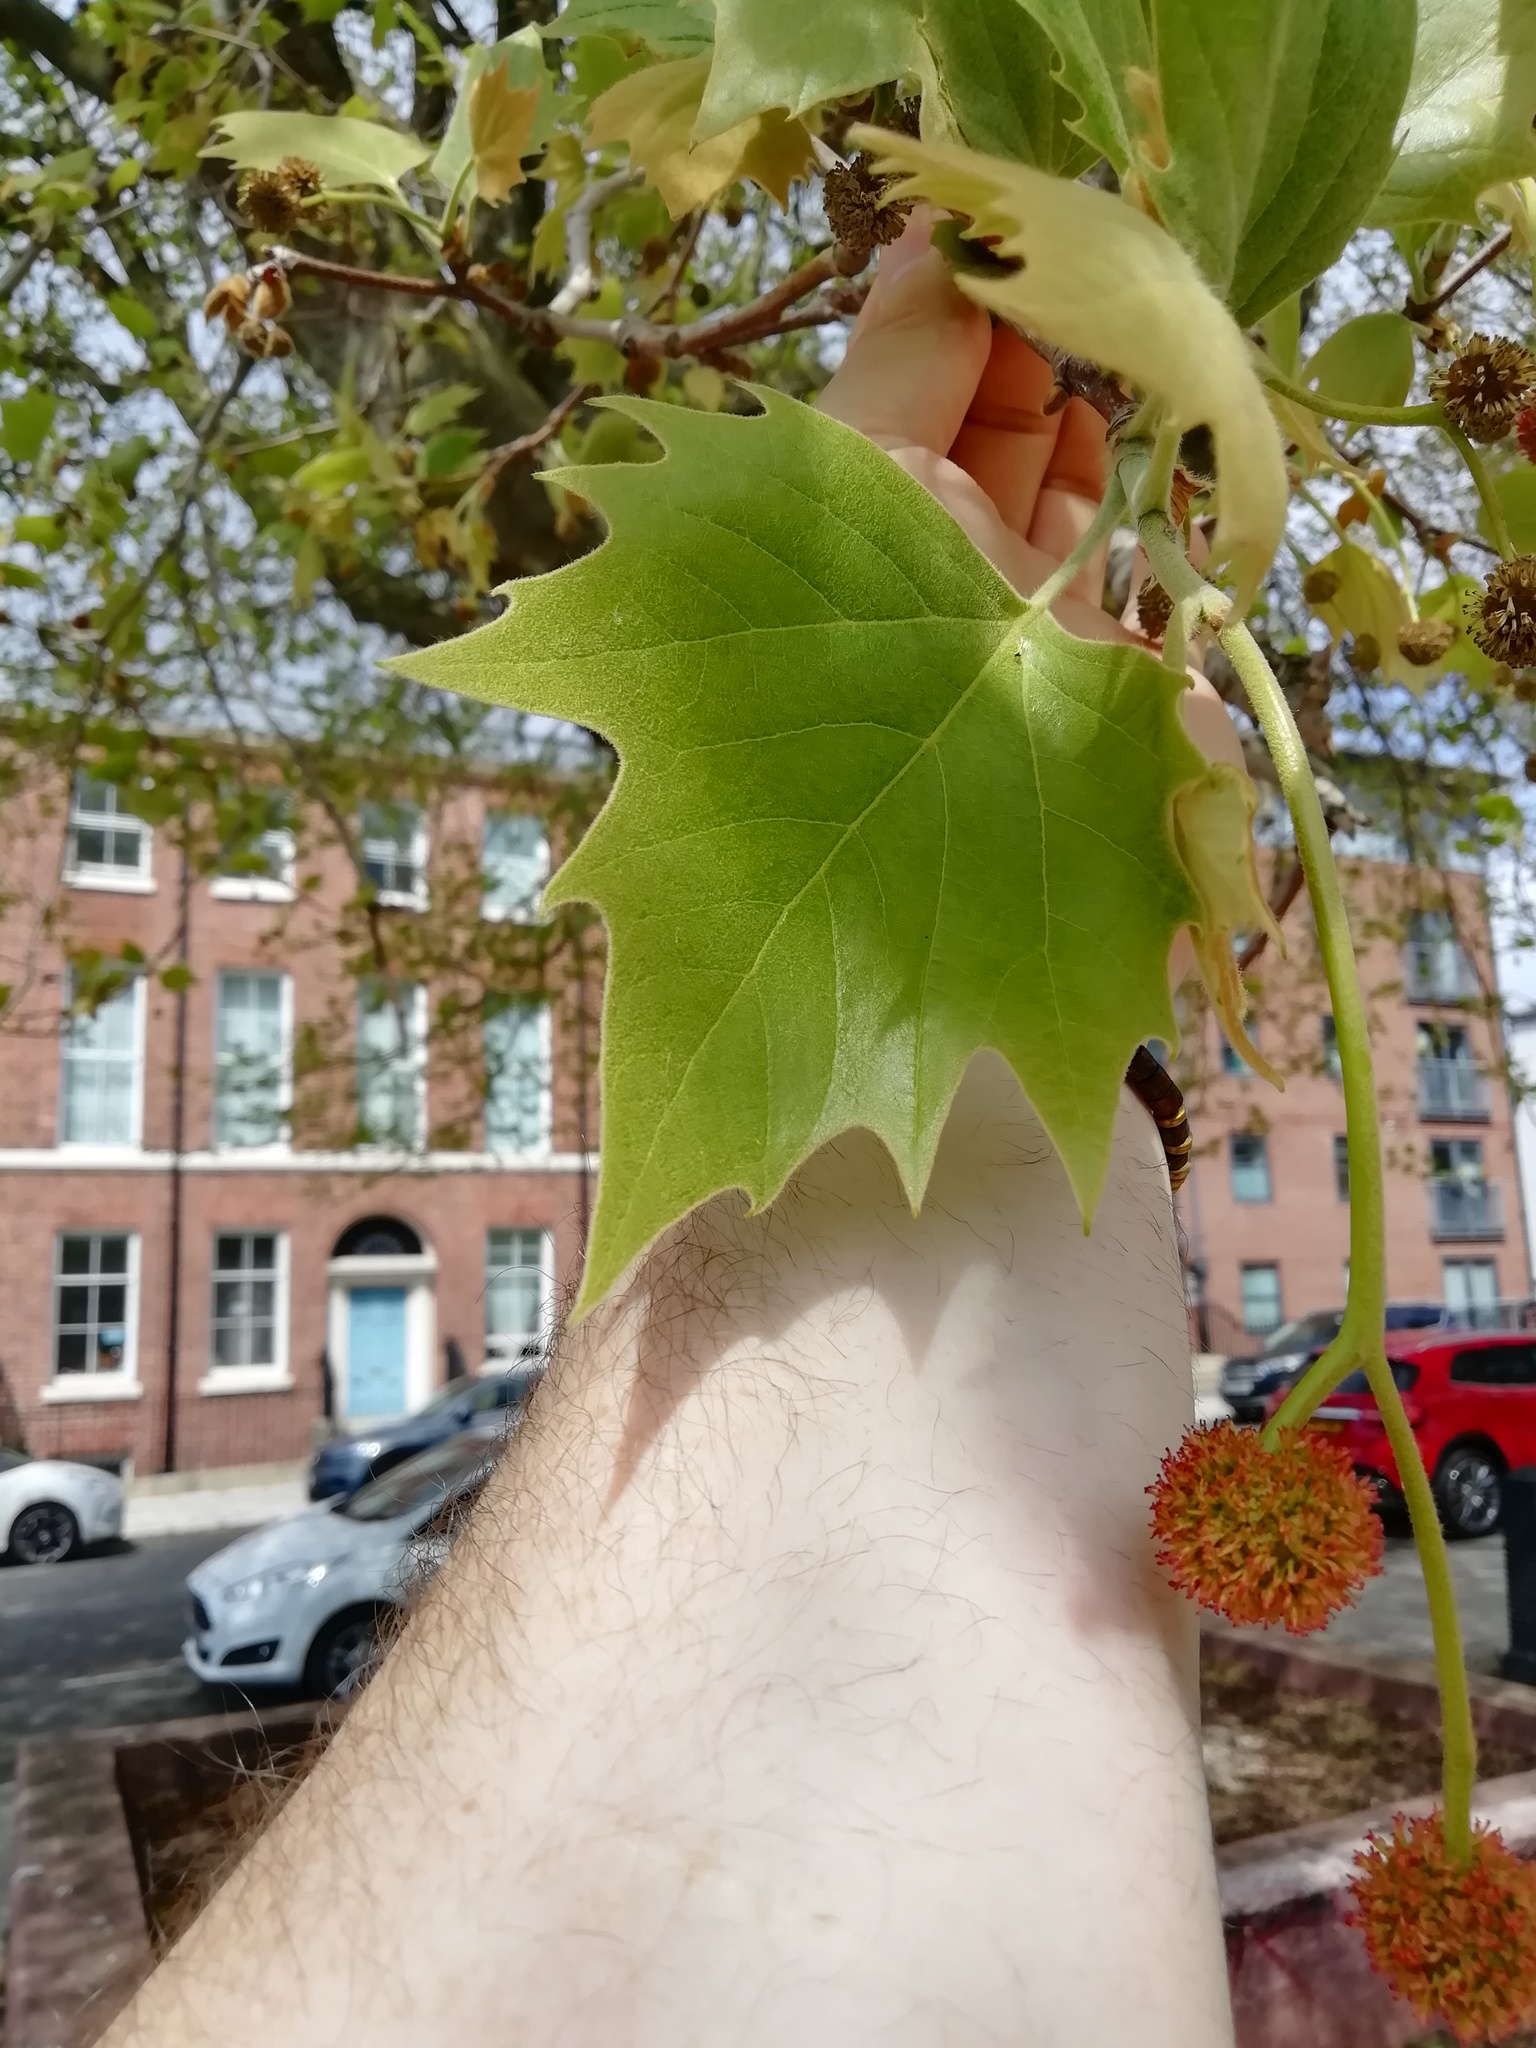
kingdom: Plantae
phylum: Tracheophyta
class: Magnoliopsida
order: Proteales
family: Platanaceae
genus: Platanus
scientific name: Platanus hispanica
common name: London plane
